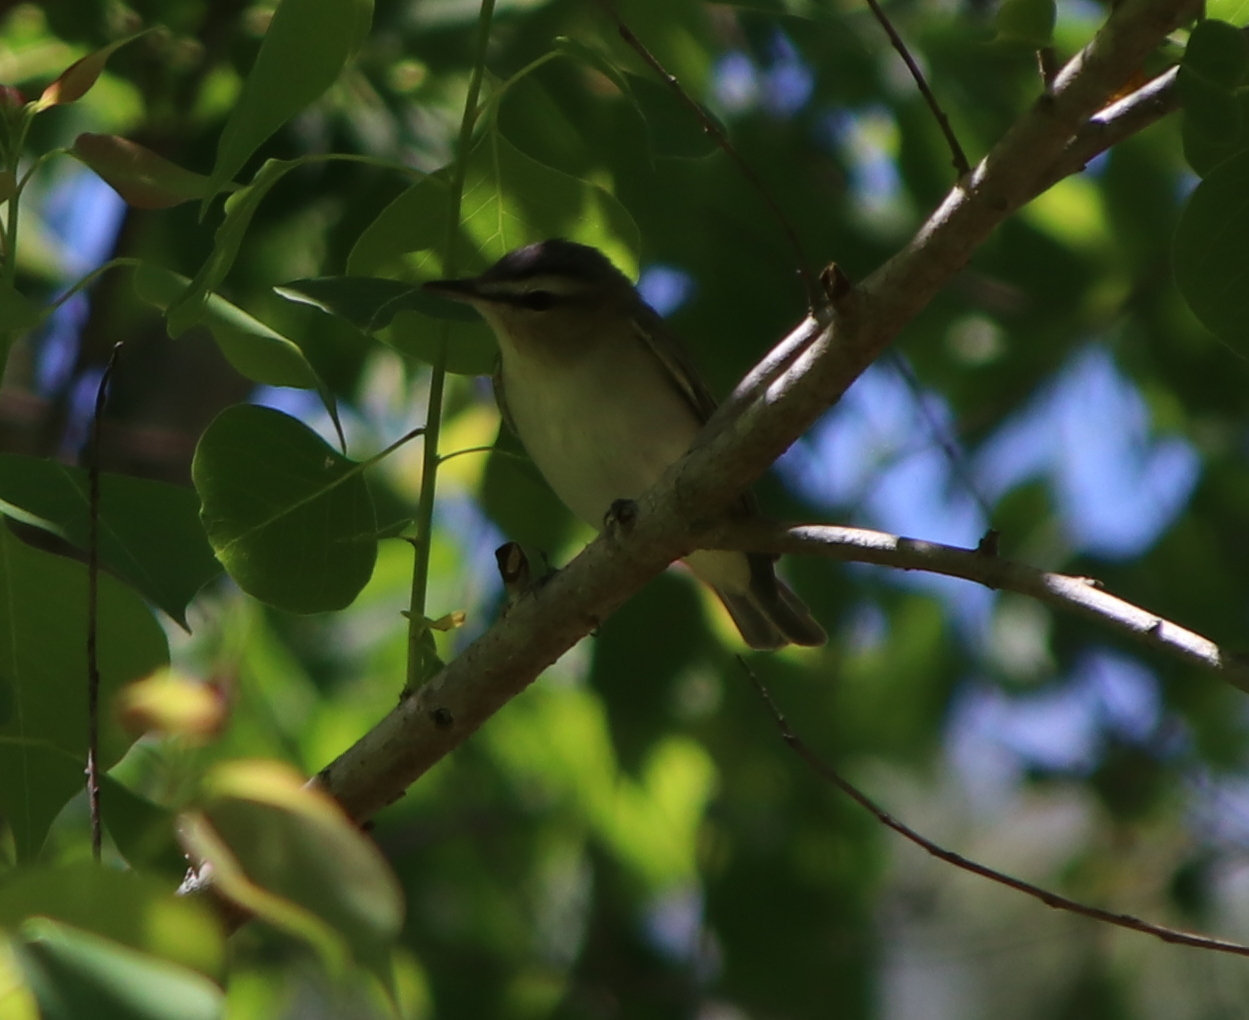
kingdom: Animalia
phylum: Chordata
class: Aves
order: Passeriformes
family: Vireonidae
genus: Vireo
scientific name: Vireo olivaceus
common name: Red-eyed vireo
